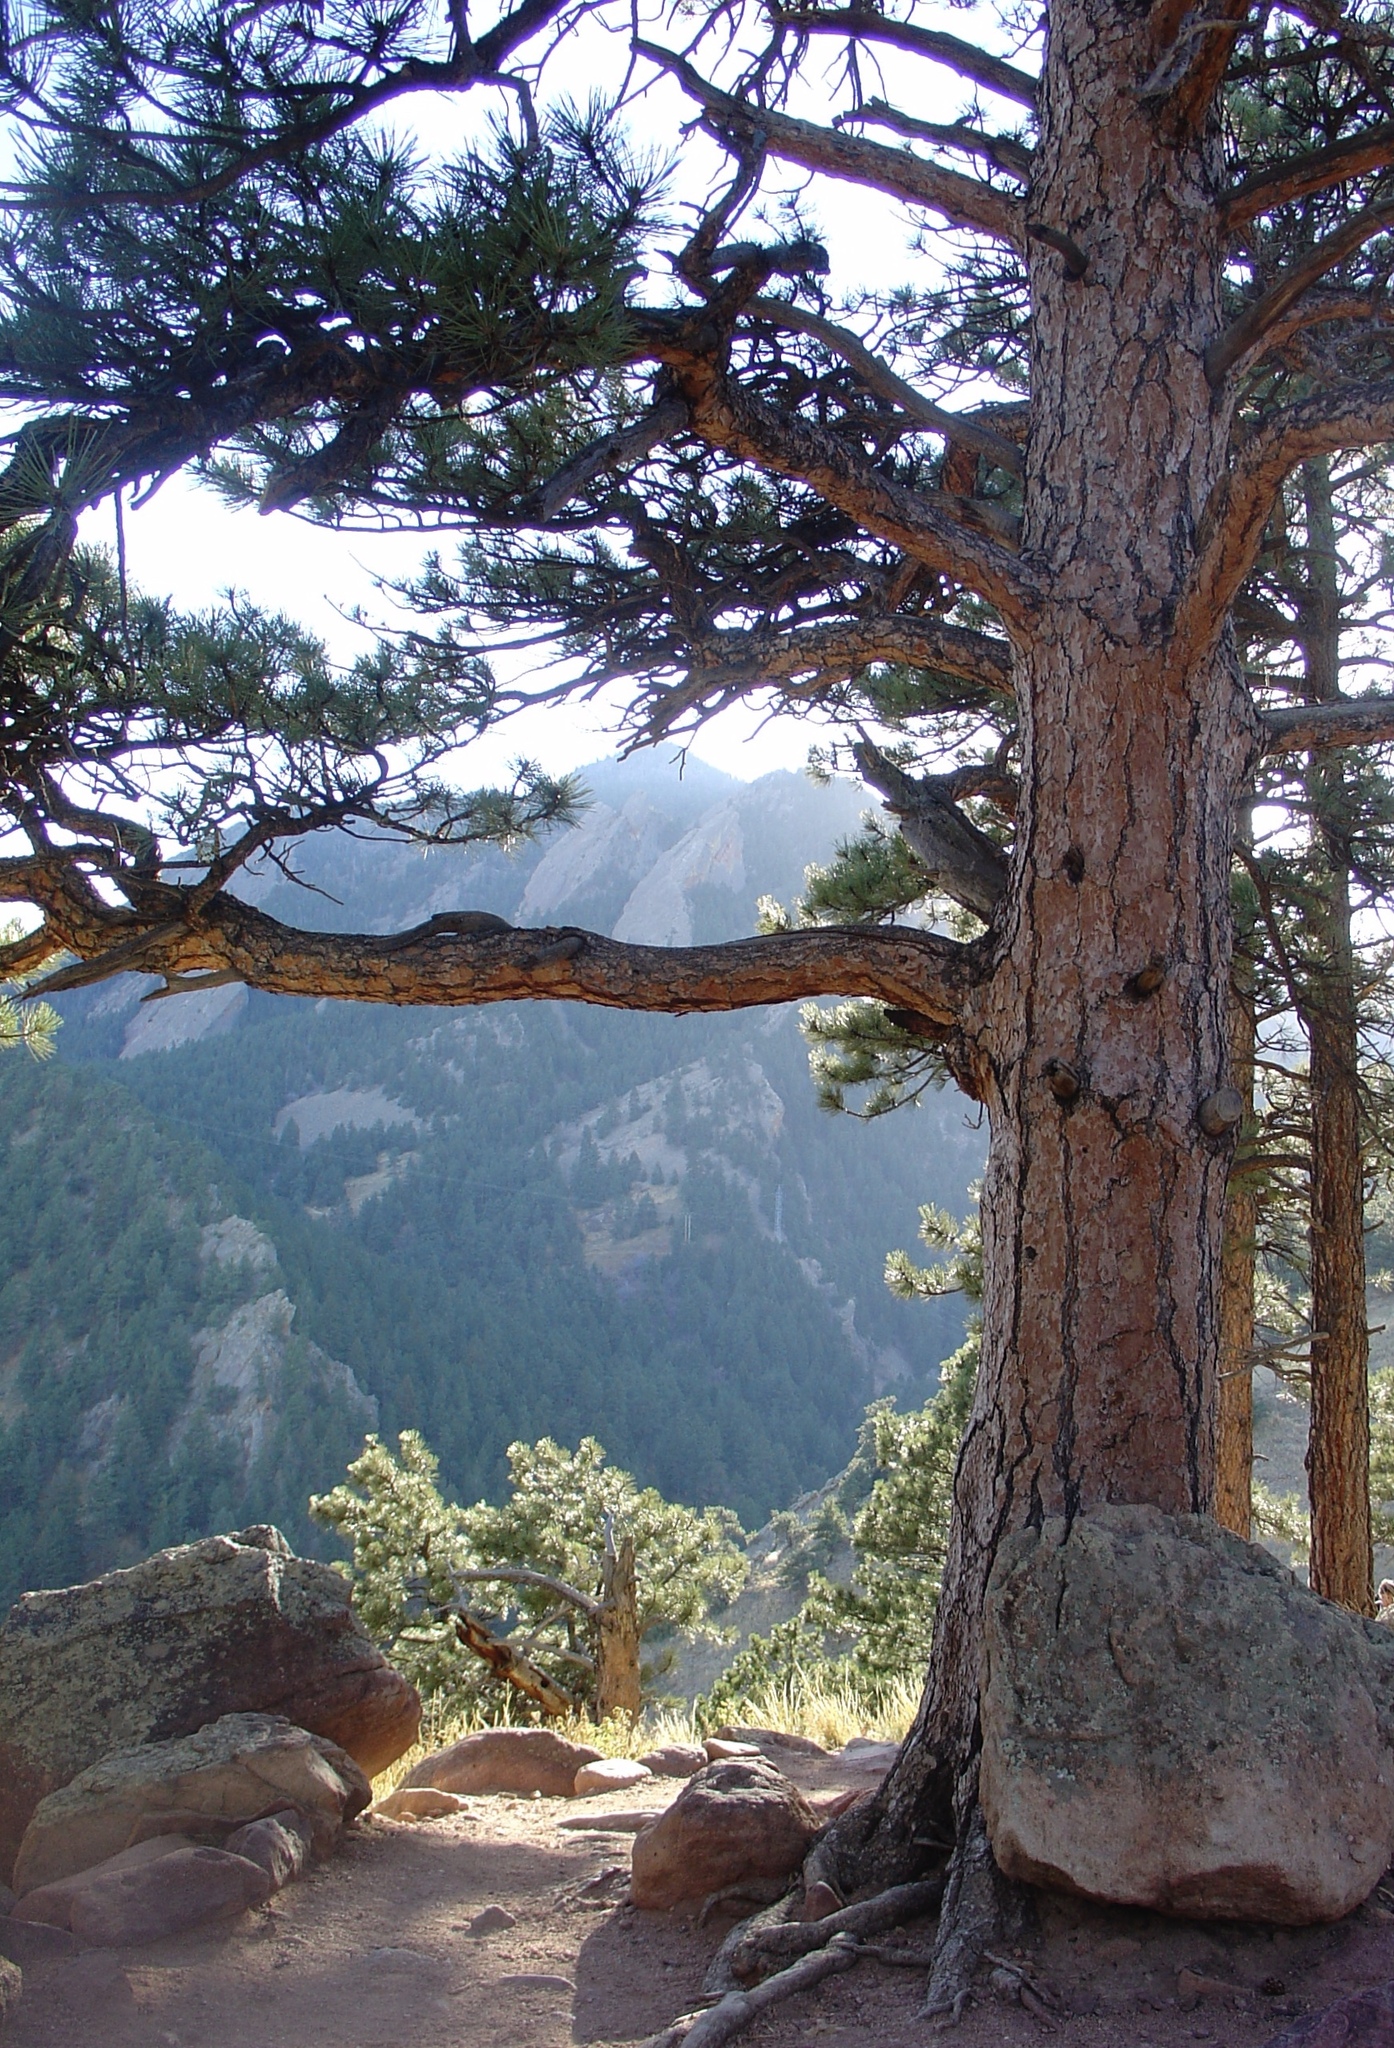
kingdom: Plantae
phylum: Tracheophyta
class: Pinopsida
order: Pinales
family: Pinaceae
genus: Pinus
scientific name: Pinus ponderosa
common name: Western yellow-pine
